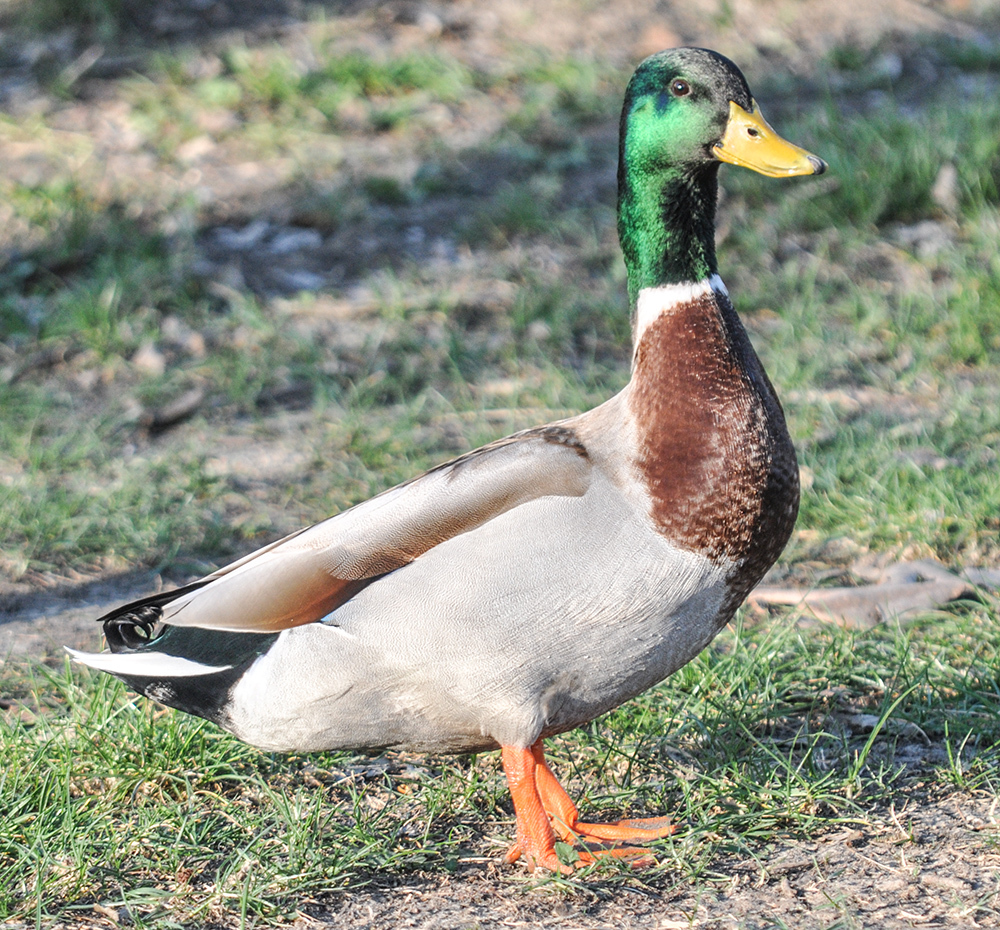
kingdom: Animalia
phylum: Chordata
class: Aves
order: Anseriformes
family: Anatidae
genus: Anas
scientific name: Anas platyrhynchos
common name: Mallard
